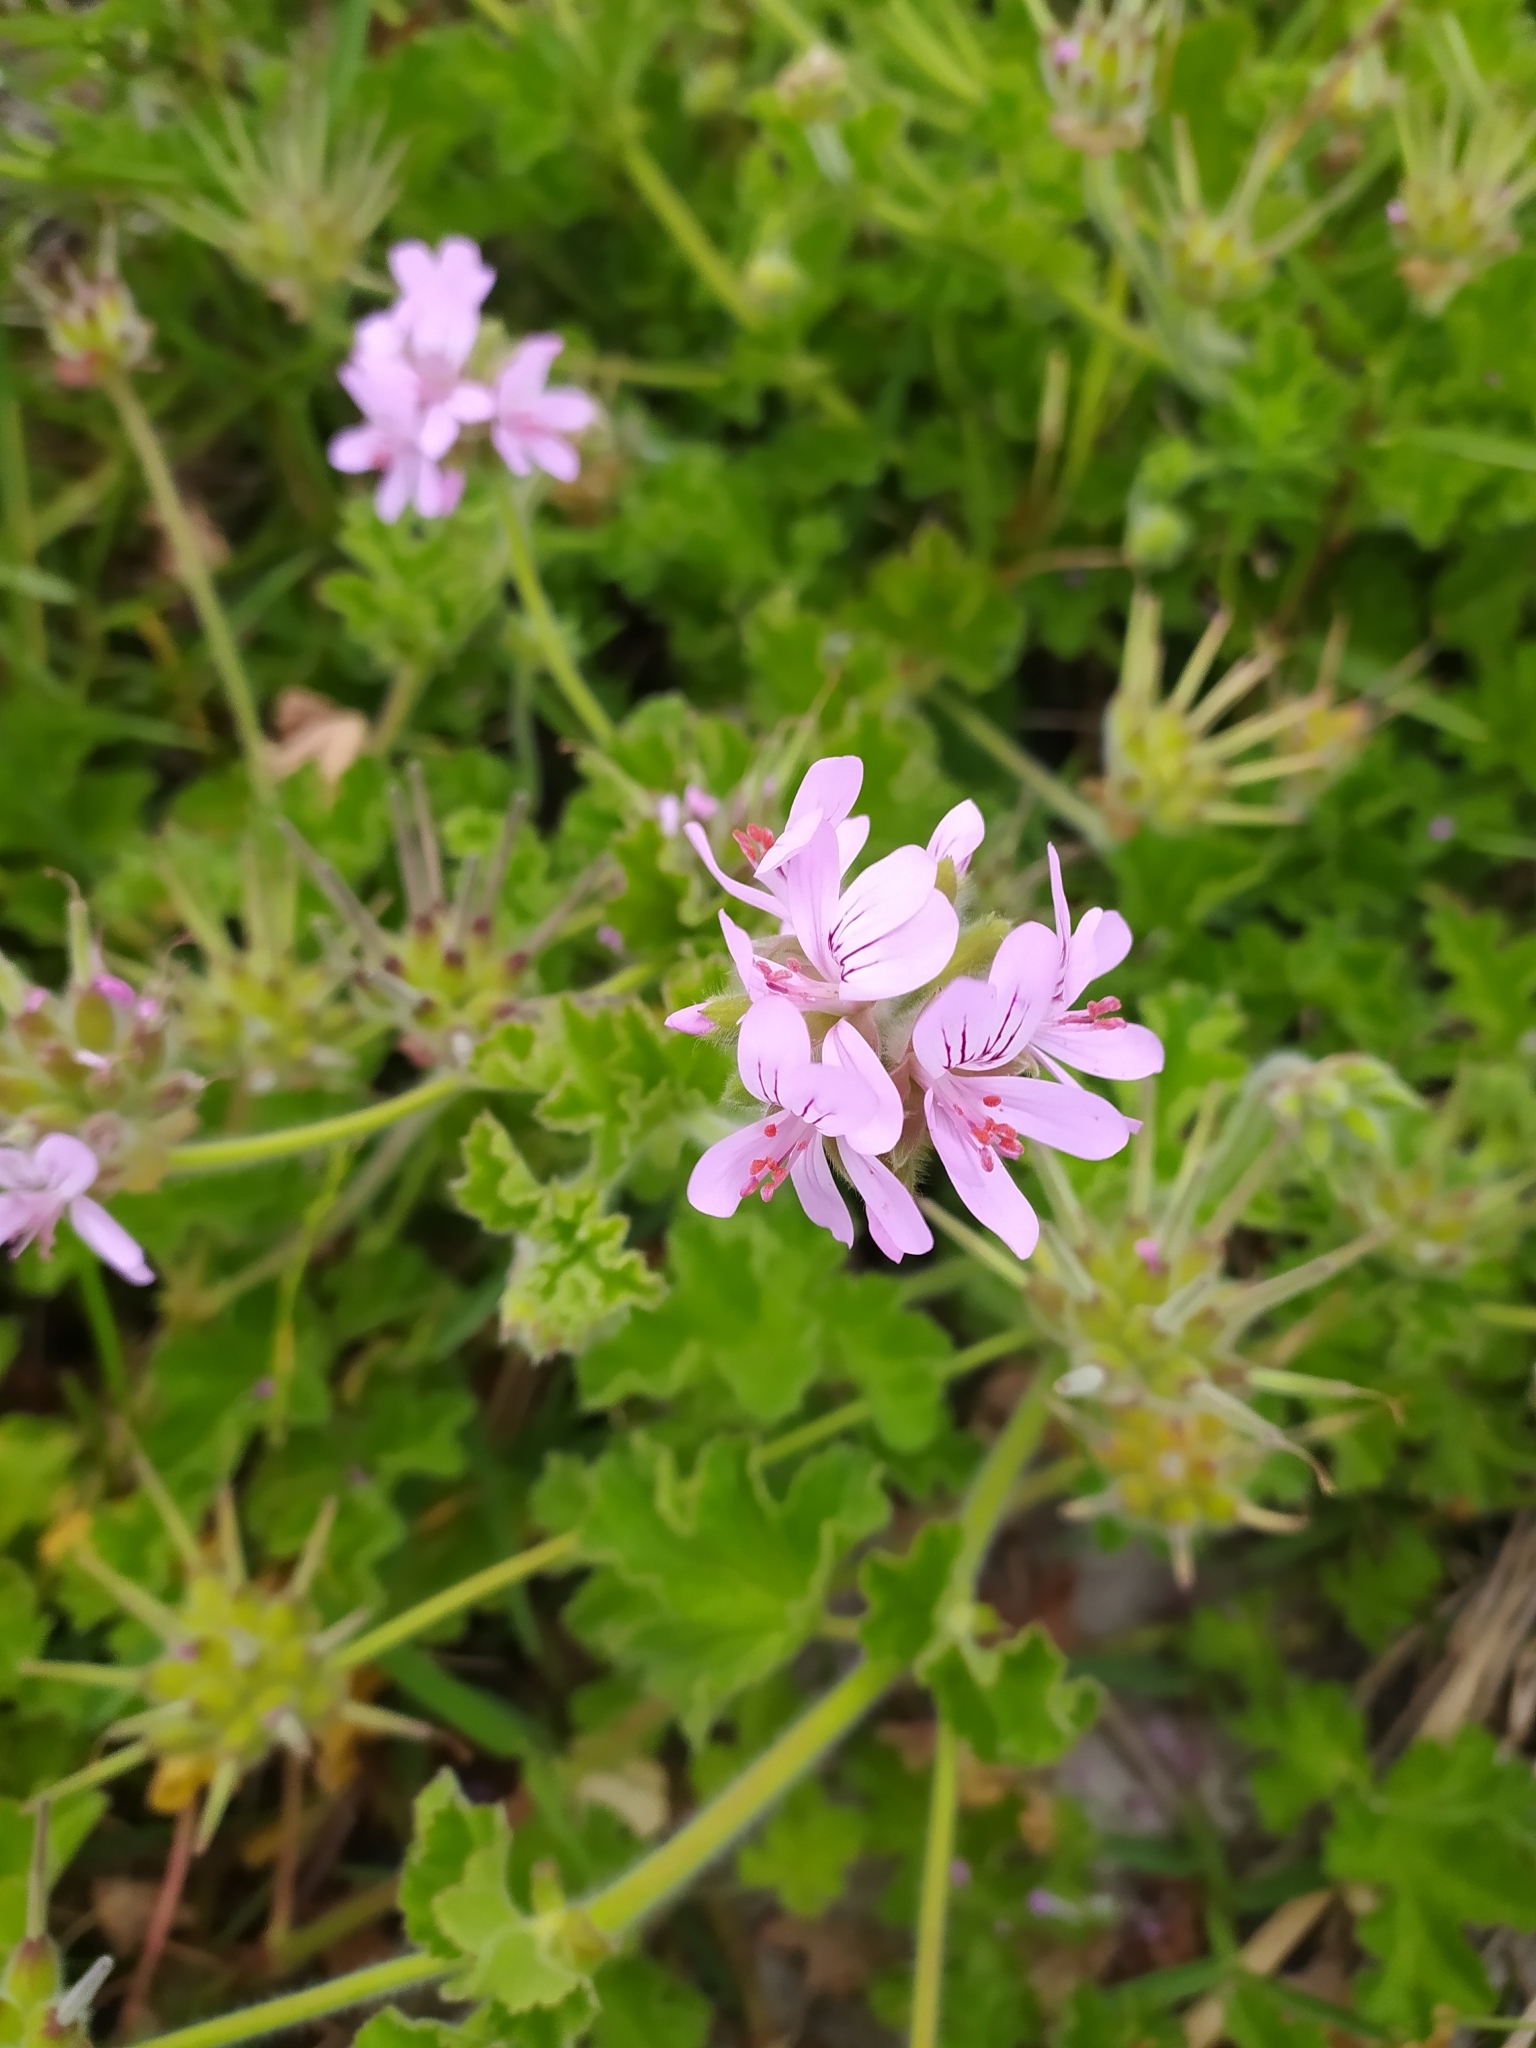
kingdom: Plantae
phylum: Tracheophyta
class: Magnoliopsida
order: Geraniales
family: Geraniaceae
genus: Pelargonium
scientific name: Pelargonium capitatum
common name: Rose scented geranium
